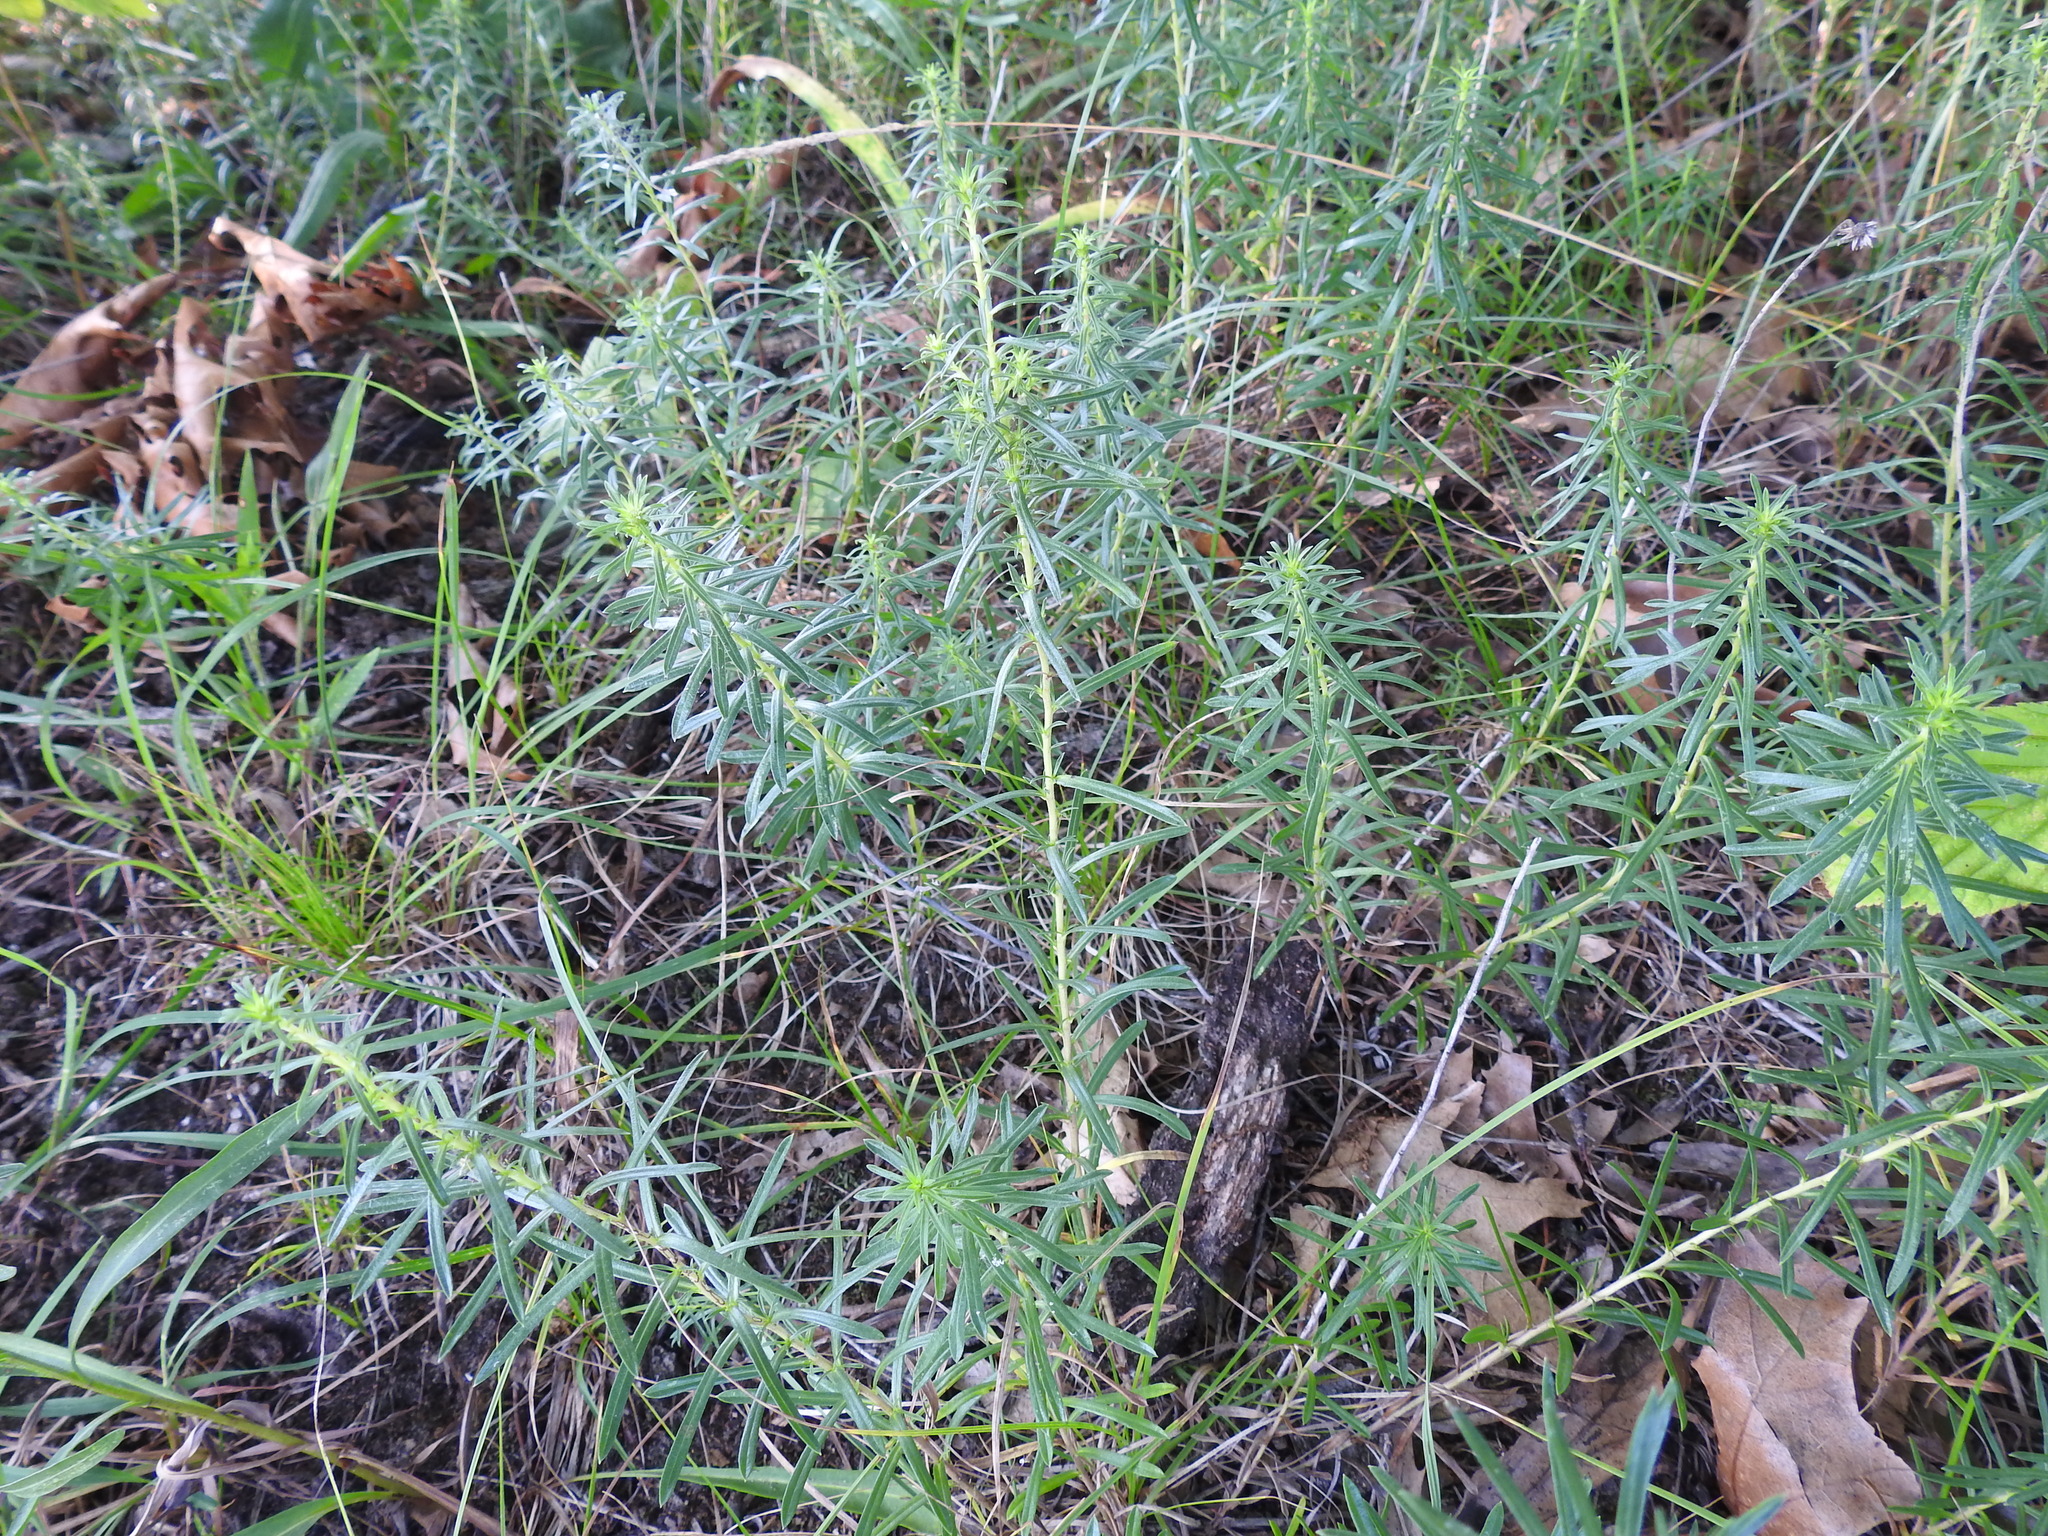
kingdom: Plantae
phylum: Tracheophyta
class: Magnoliopsida
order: Asterales
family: Asteraceae
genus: Ionactis
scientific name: Ionactis linariifolia
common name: Flax-leaf aster
